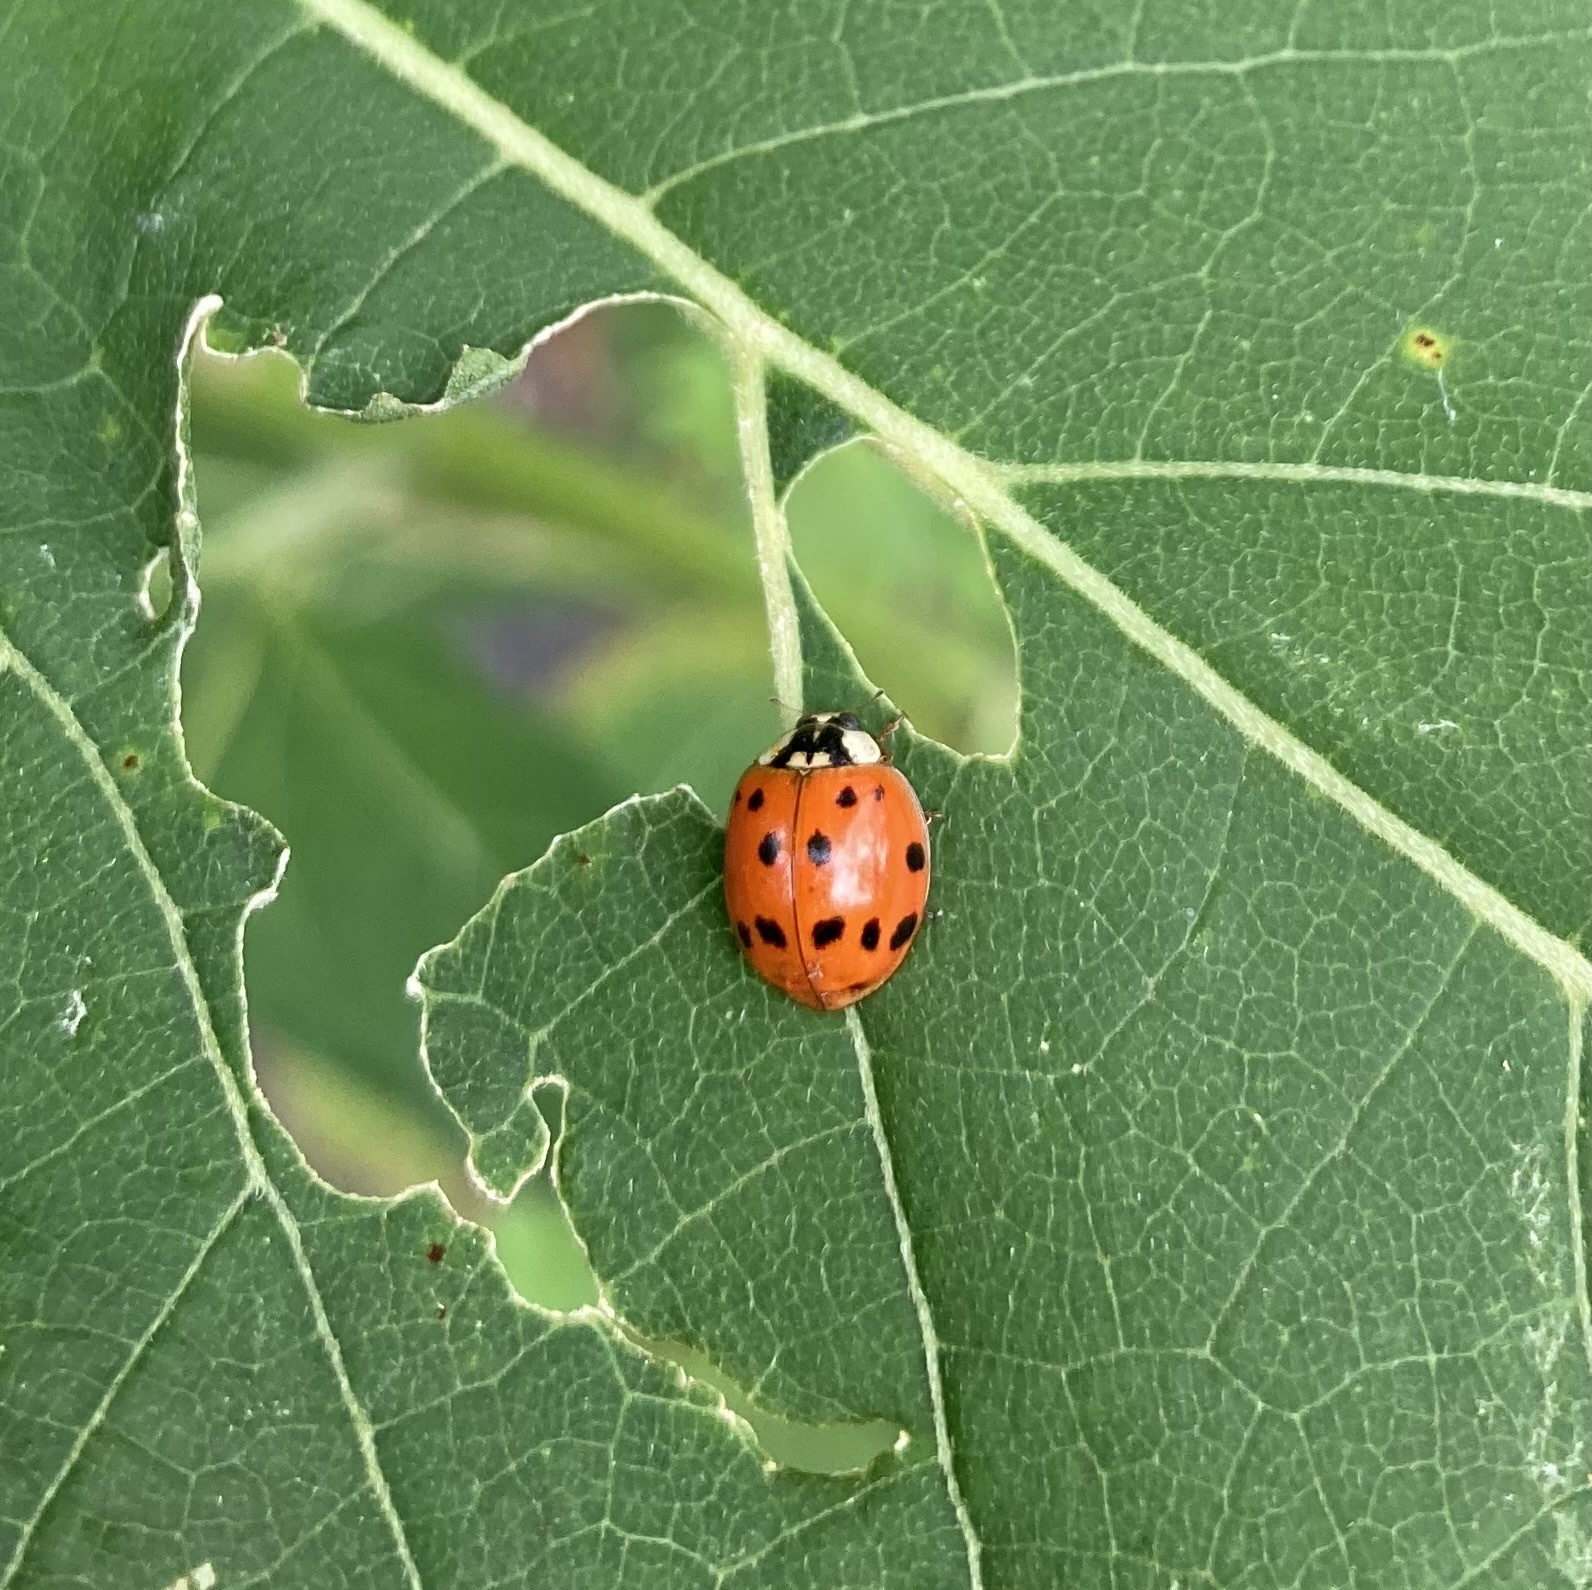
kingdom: Animalia
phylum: Arthropoda
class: Insecta
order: Coleoptera
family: Coccinellidae
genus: Harmonia
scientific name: Harmonia axyridis
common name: Harlequin ladybird
